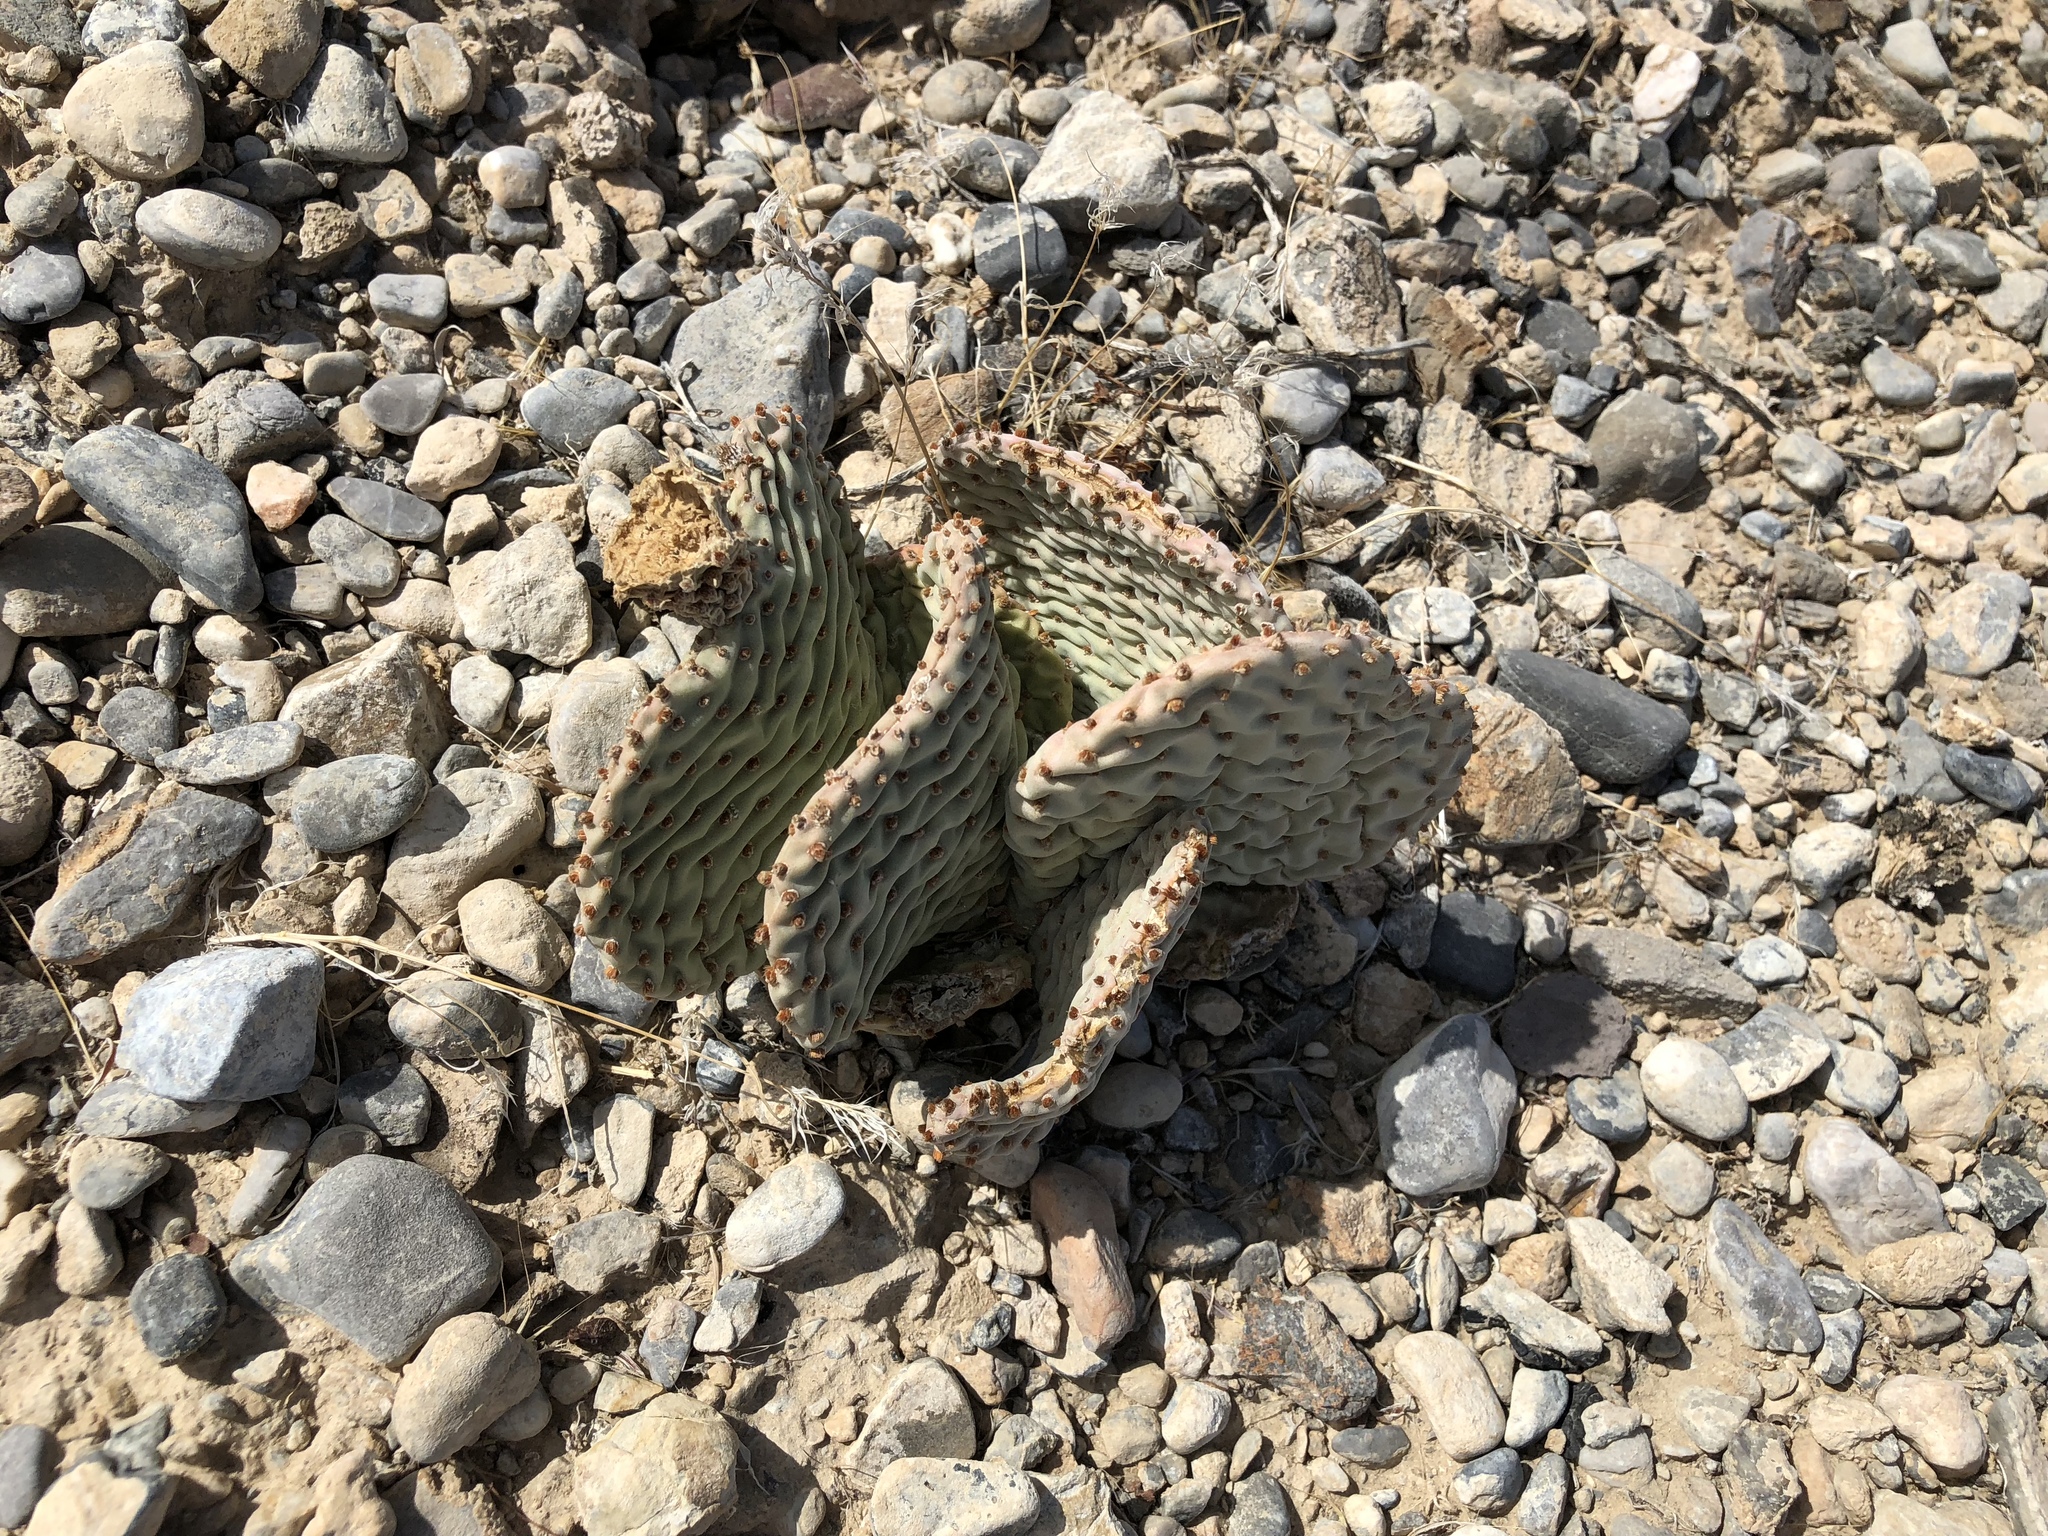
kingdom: Plantae
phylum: Tracheophyta
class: Magnoliopsida
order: Caryophyllales
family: Cactaceae
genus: Opuntia
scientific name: Opuntia basilaris
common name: Beavertail prickly-pear
